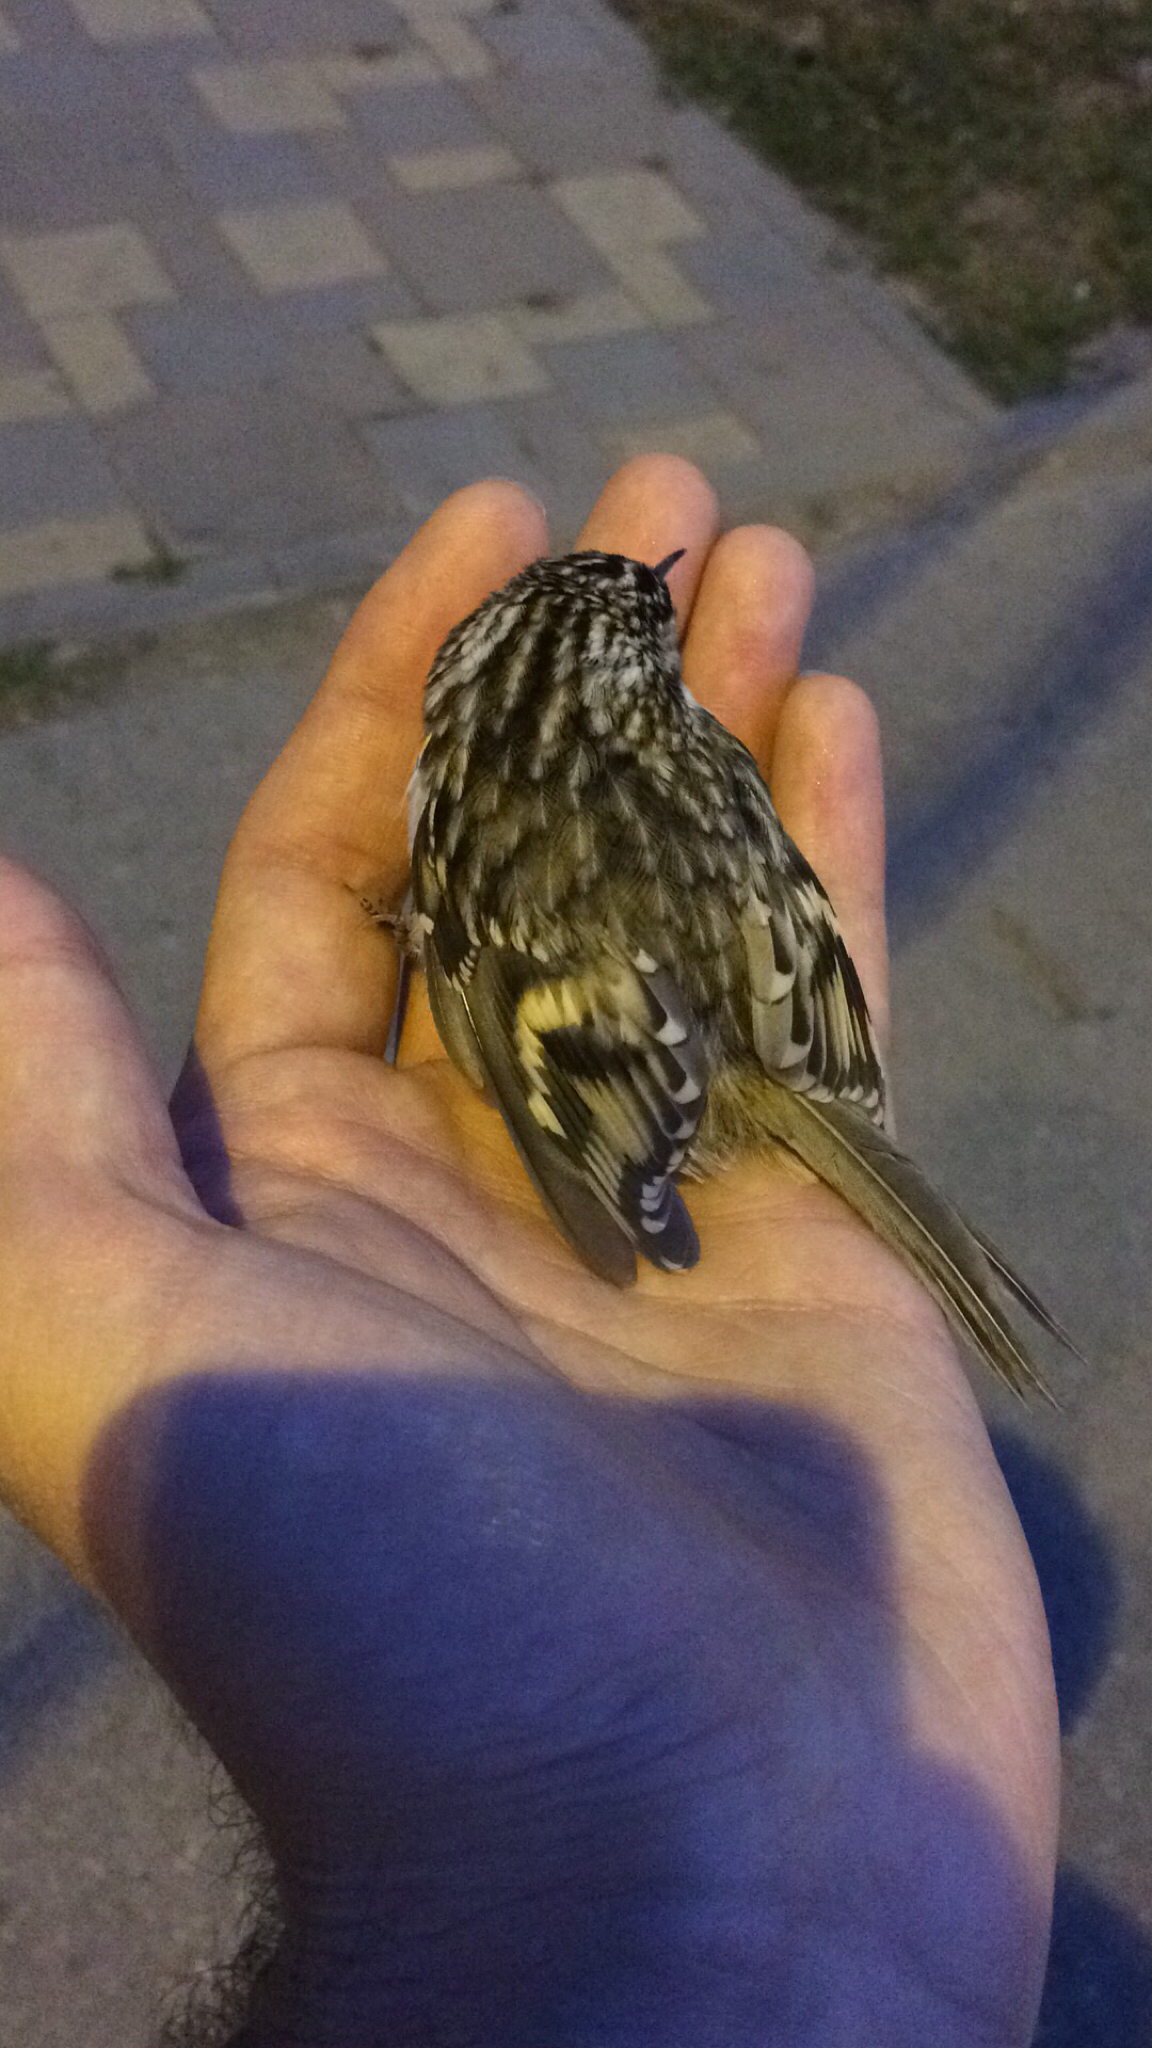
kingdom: Animalia
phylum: Chordata
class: Aves
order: Passeriformes
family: Certhiidae
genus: Certhia
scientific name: Certhia familiaris
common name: Eurasian treecreeper
